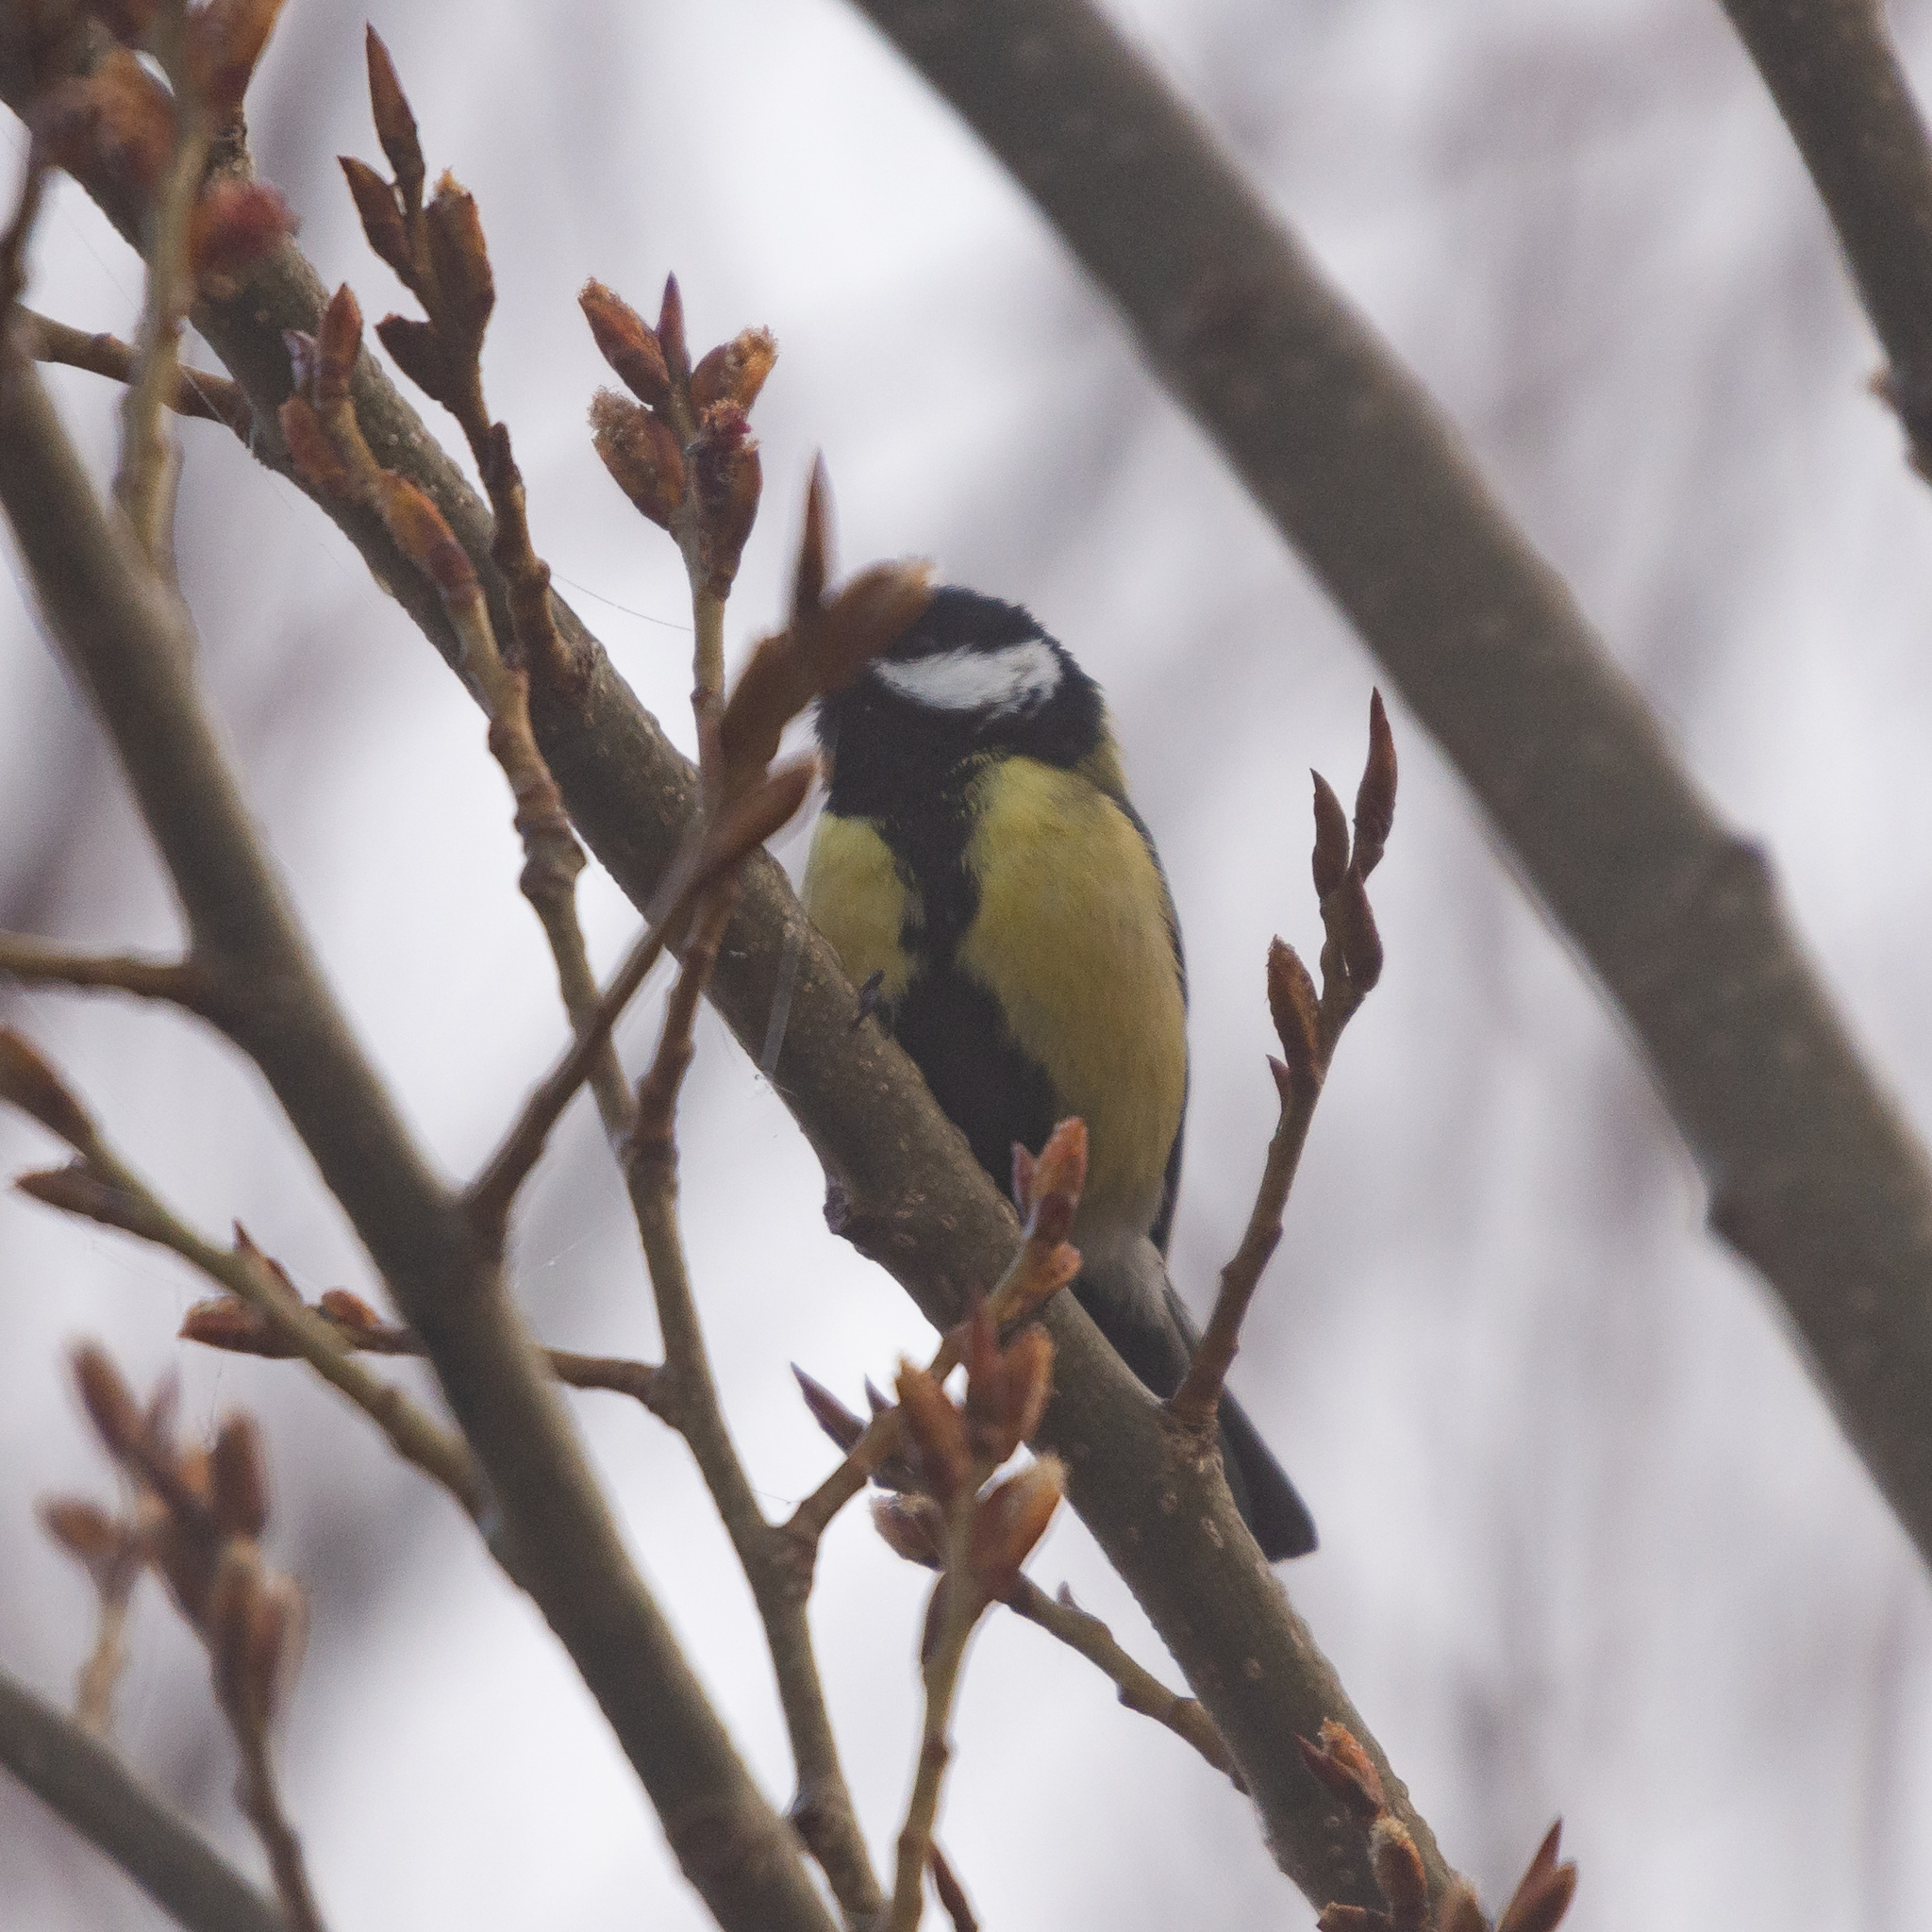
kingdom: Animalia
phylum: Chordata
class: Aves
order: Passeriformes
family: Paridae
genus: Parus
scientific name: Parus major
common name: Great tit
